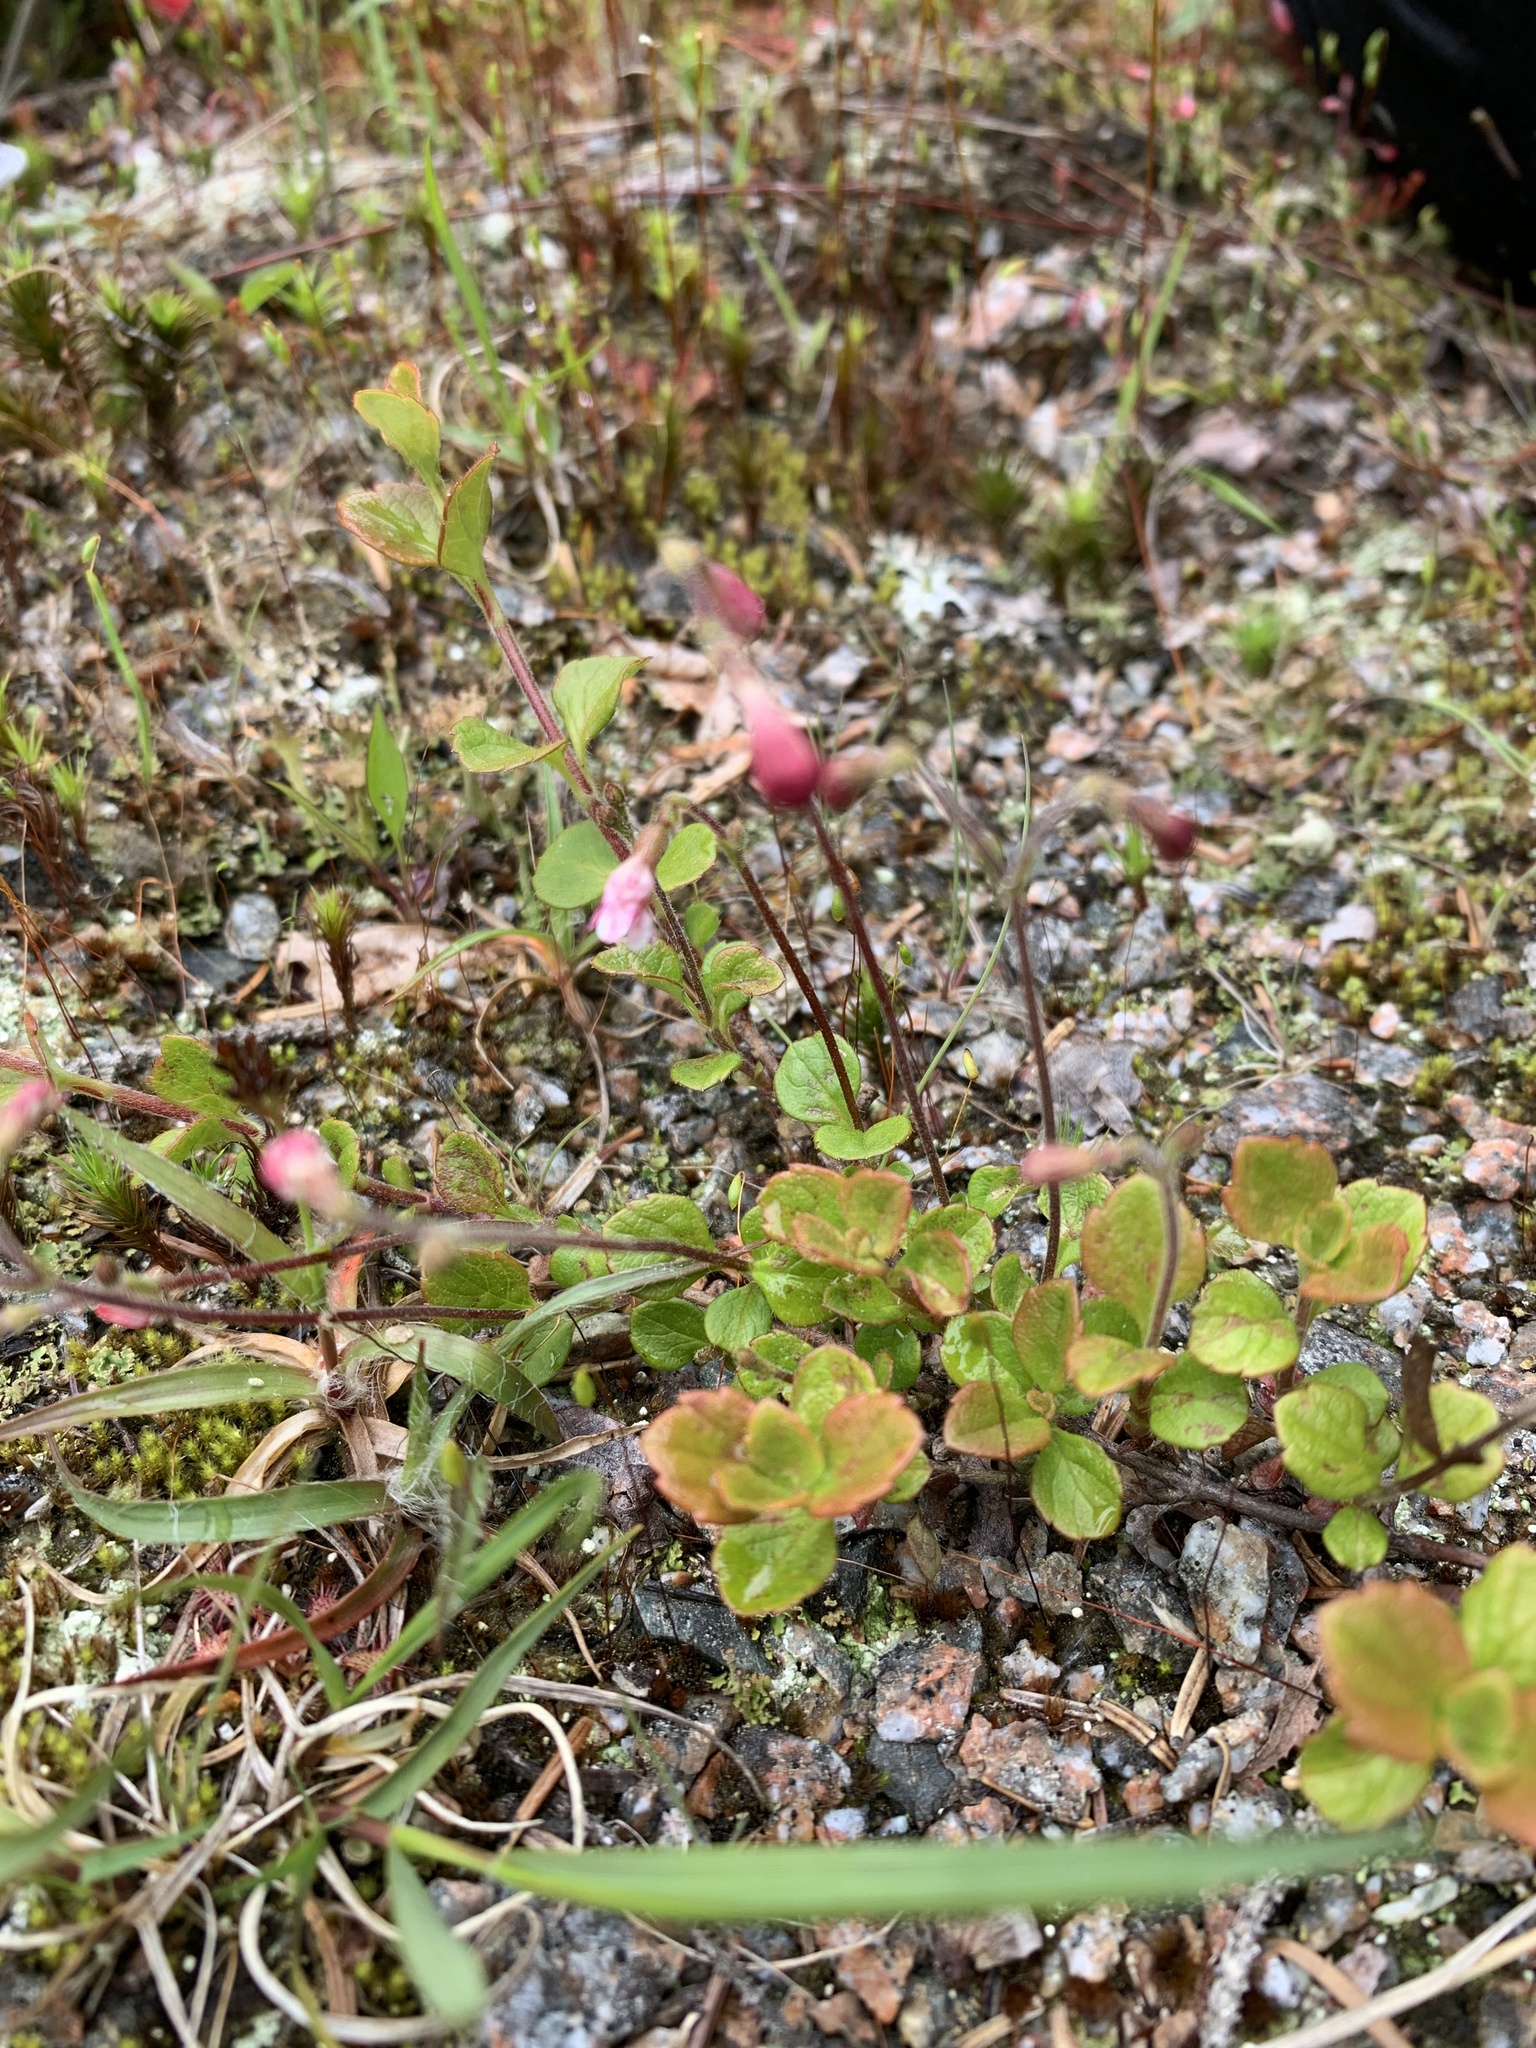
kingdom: Plantae
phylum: Tracheophyta
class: Magnoliopsida
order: Dipsacales
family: Caprifoliaceae
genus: Linnaea
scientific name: Linnaea borealis
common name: Twinflower
